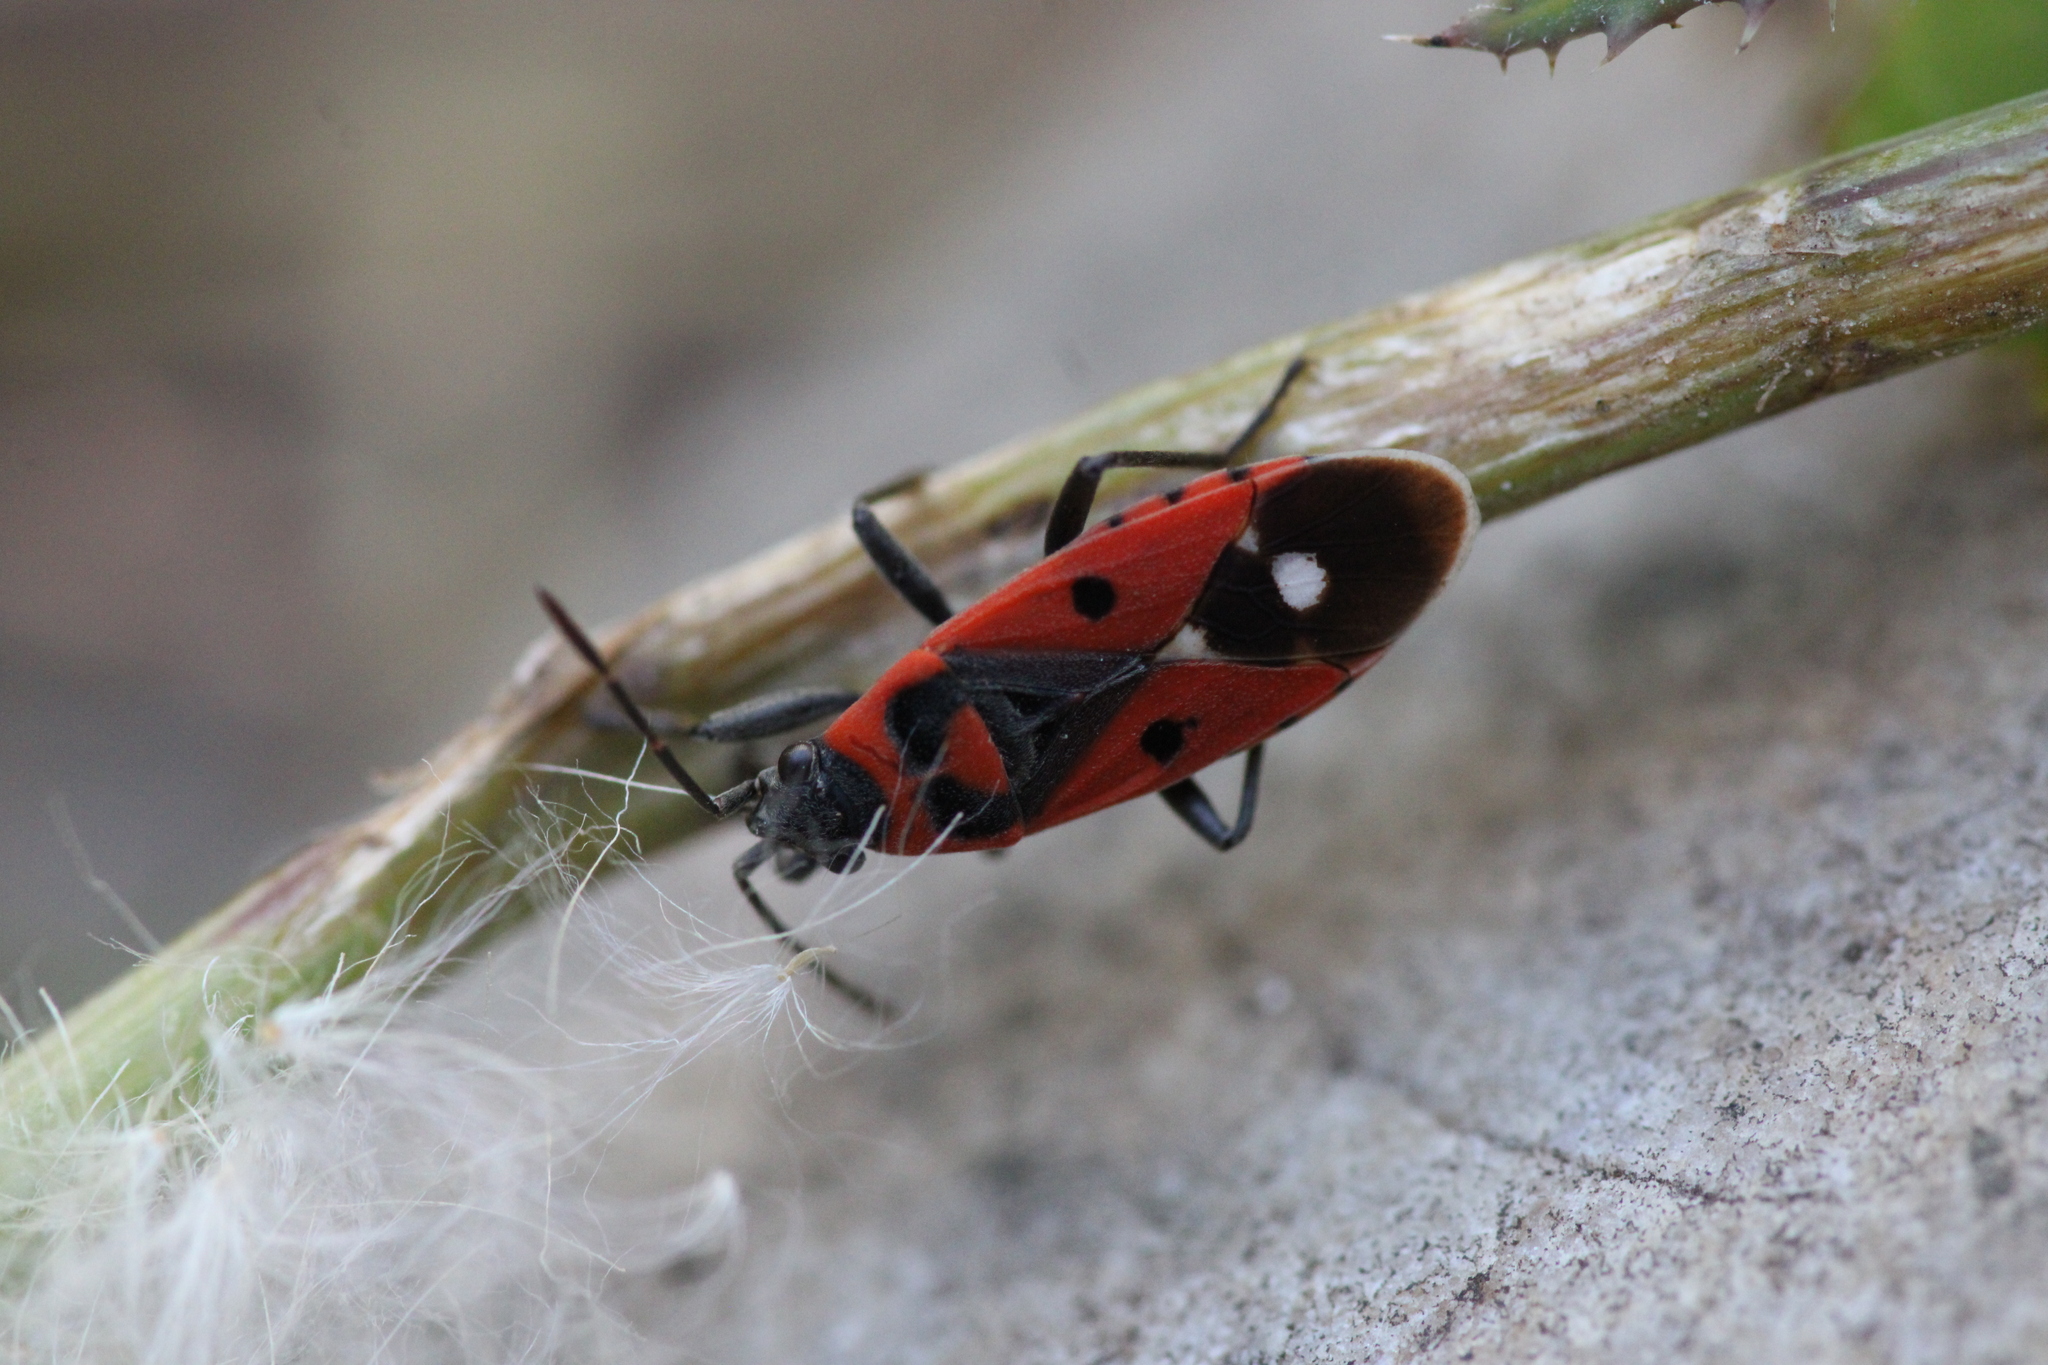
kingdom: Animalia
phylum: Arthropoda
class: Insecta
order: Hemiptera
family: Lygaeidae
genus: Melanocoryphus
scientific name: Melanocoryphus albomaculatus
